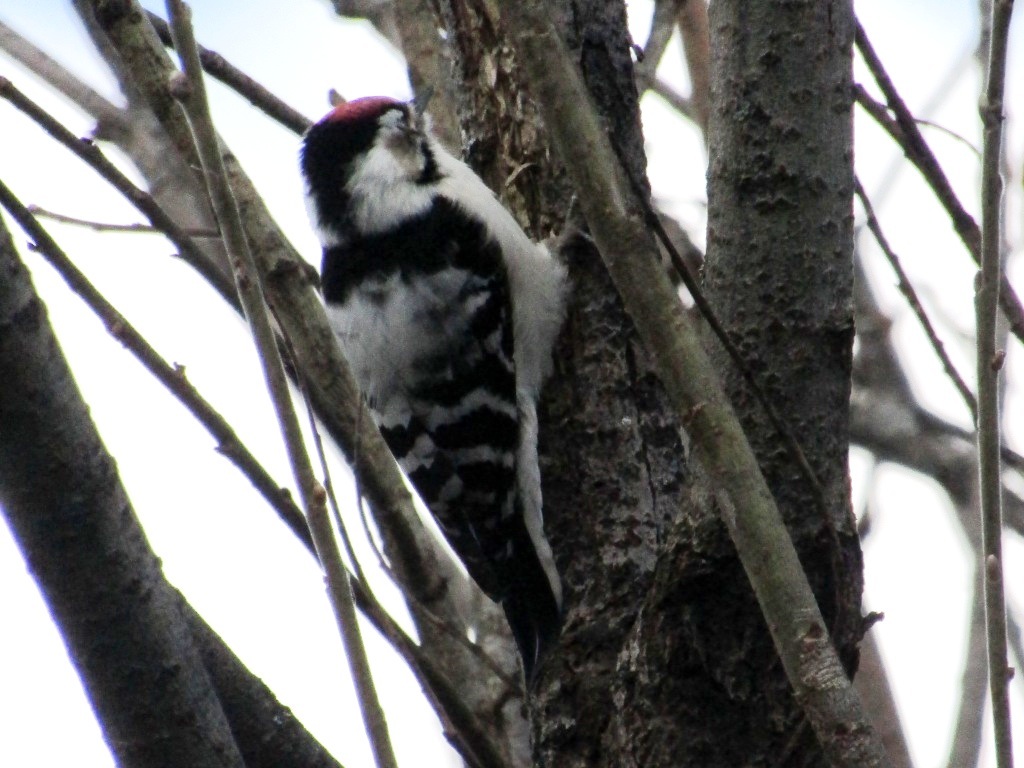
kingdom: Animalia
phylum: Chordata
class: Aves
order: Piciformes
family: Picidae
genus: Dryobates
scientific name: Dryobates minor
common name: Lesser spotted woodpecker
